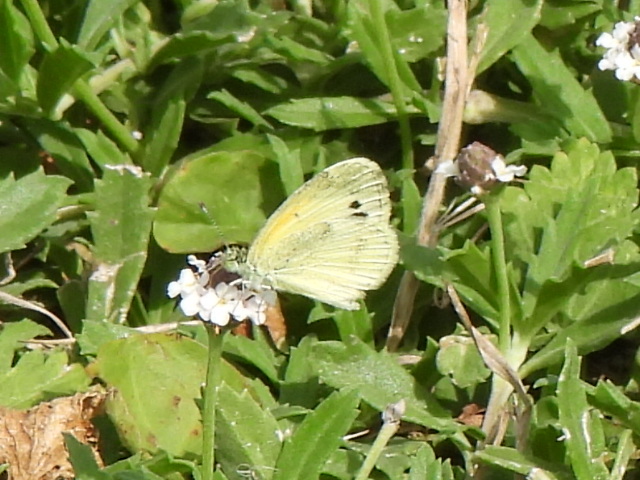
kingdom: Animalia
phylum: Arthropoda
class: Insecta
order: Lepidoptera
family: Pieridae
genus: Nathalis
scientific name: Nathalis iole
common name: Dainty sulphur
